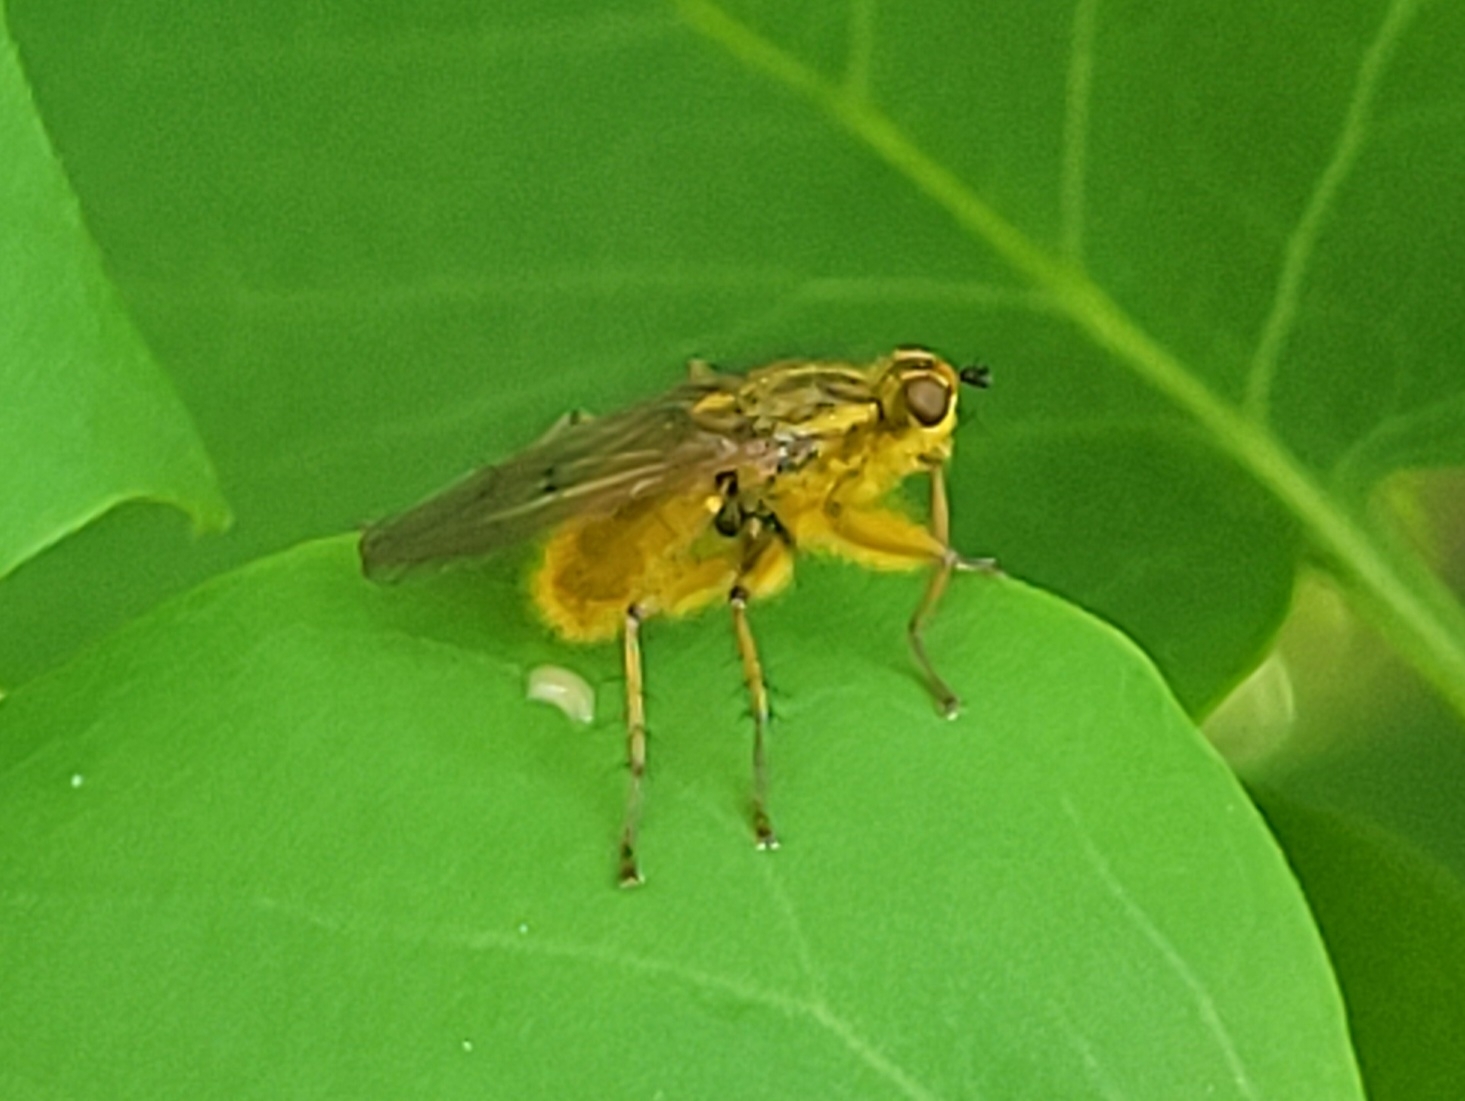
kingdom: Animalia
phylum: Arthropoda
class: Insecta
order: Diptera
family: Scathophagidae
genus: Scathophaga
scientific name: Scathophaga stercoraria
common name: Yellow dung fly
